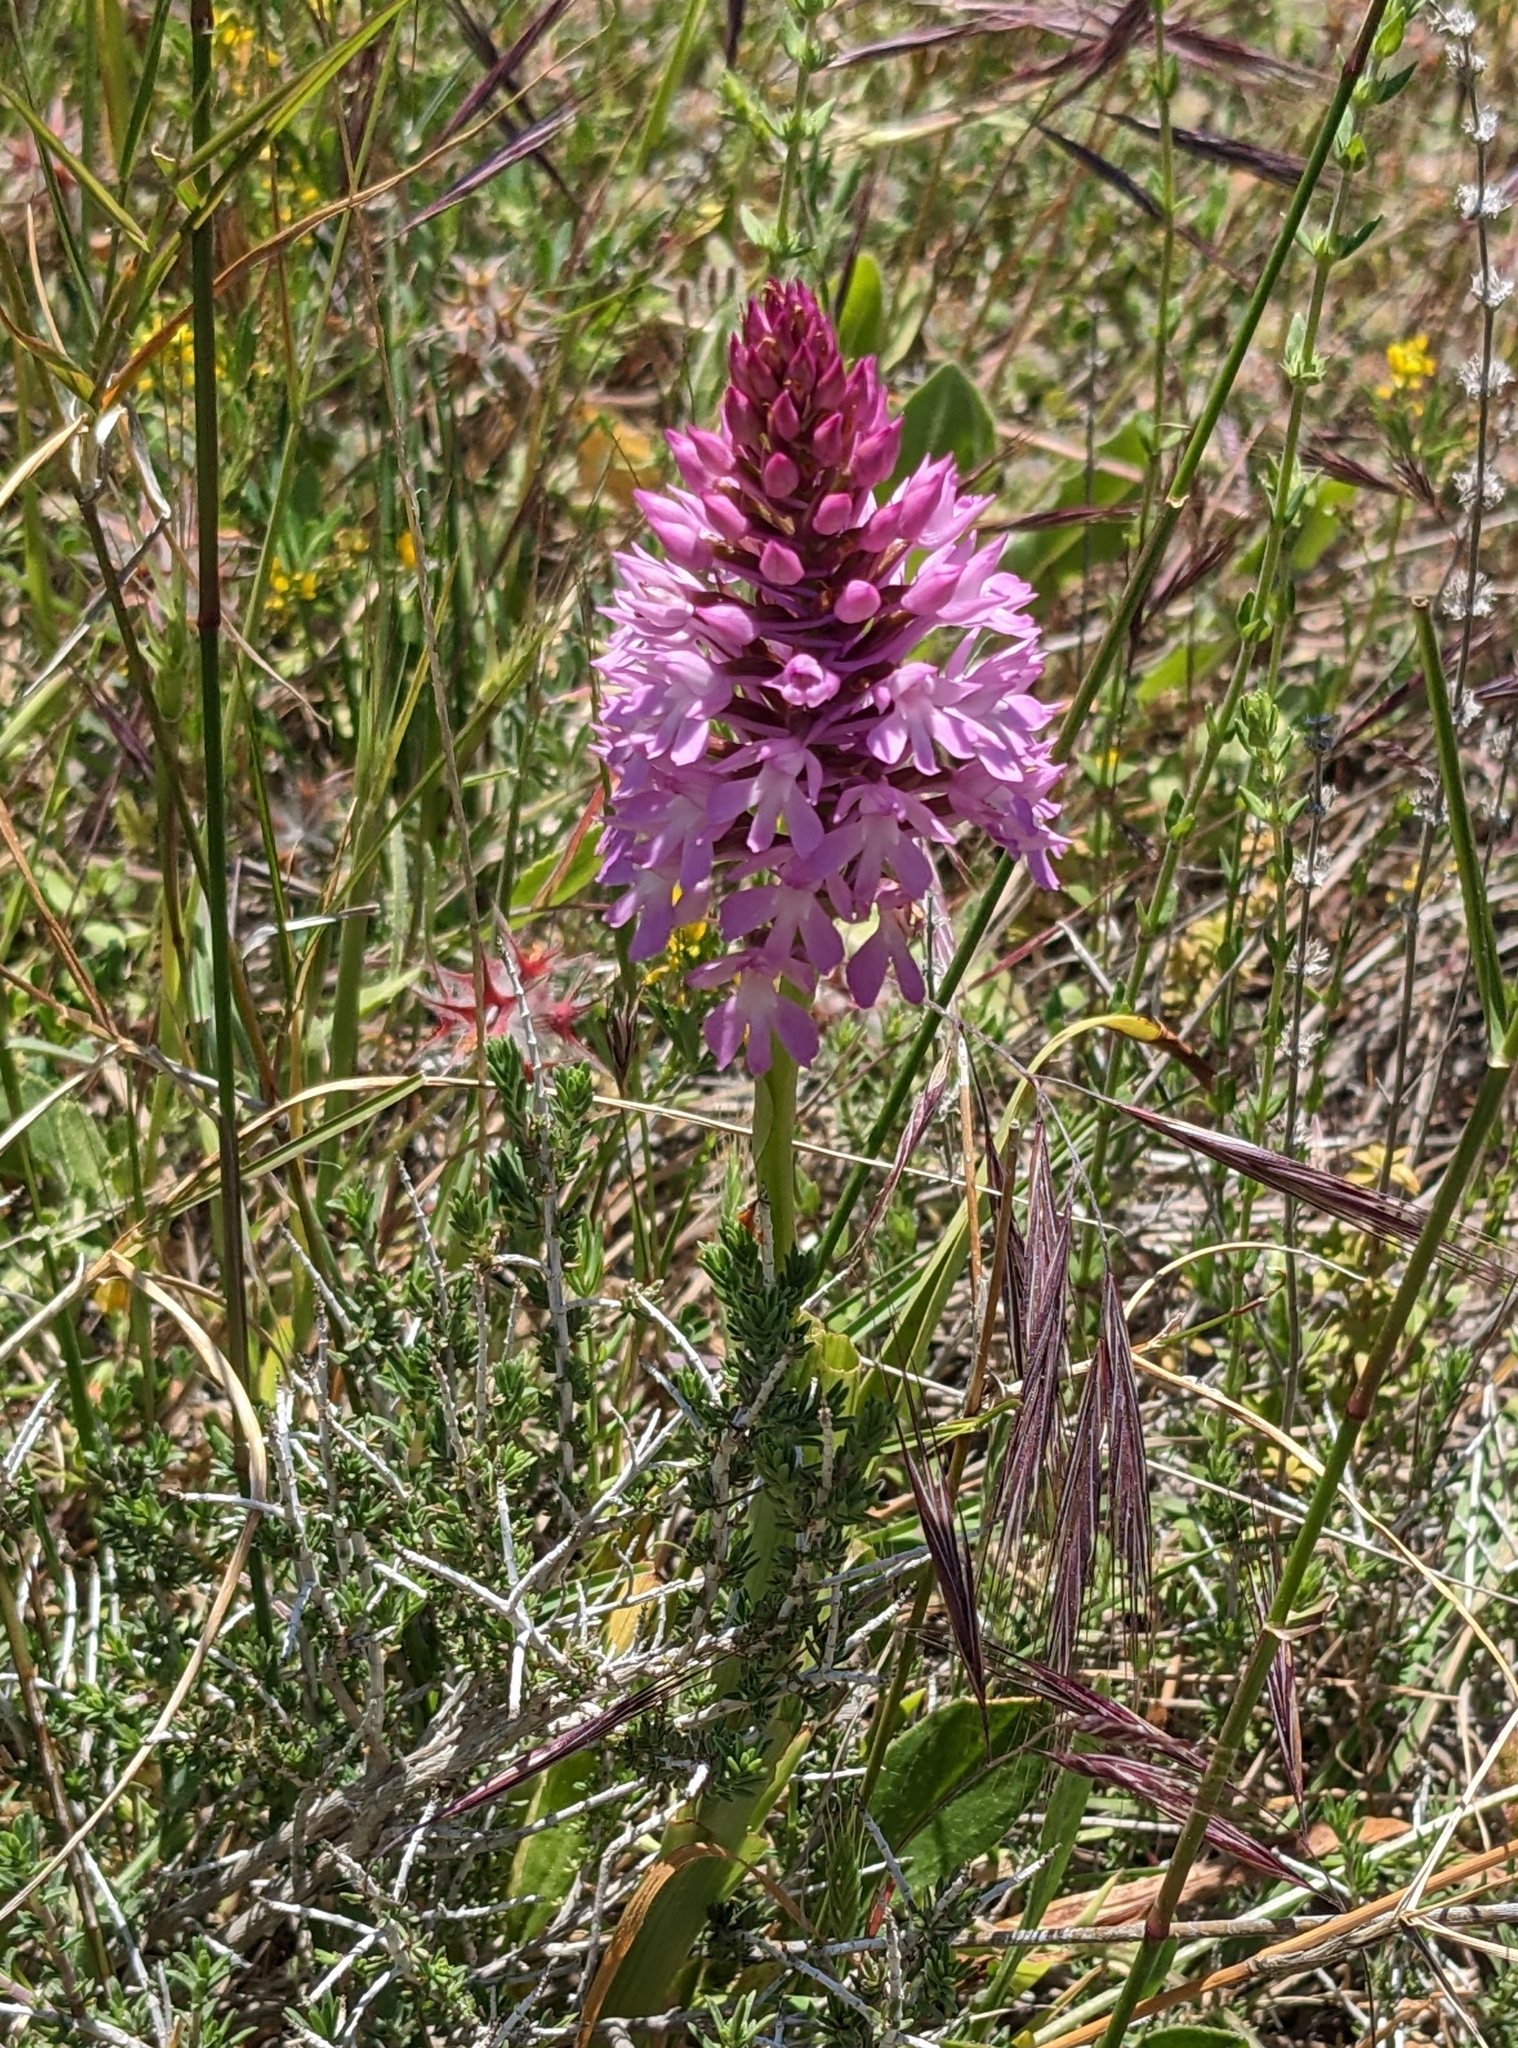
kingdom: Plantae
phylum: Tracheophyta
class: Liliopsida
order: Asparagales
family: Orchidaceae
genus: Anacamptis
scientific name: Anacamptis pyramidalis
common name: Pyramidal orchid
